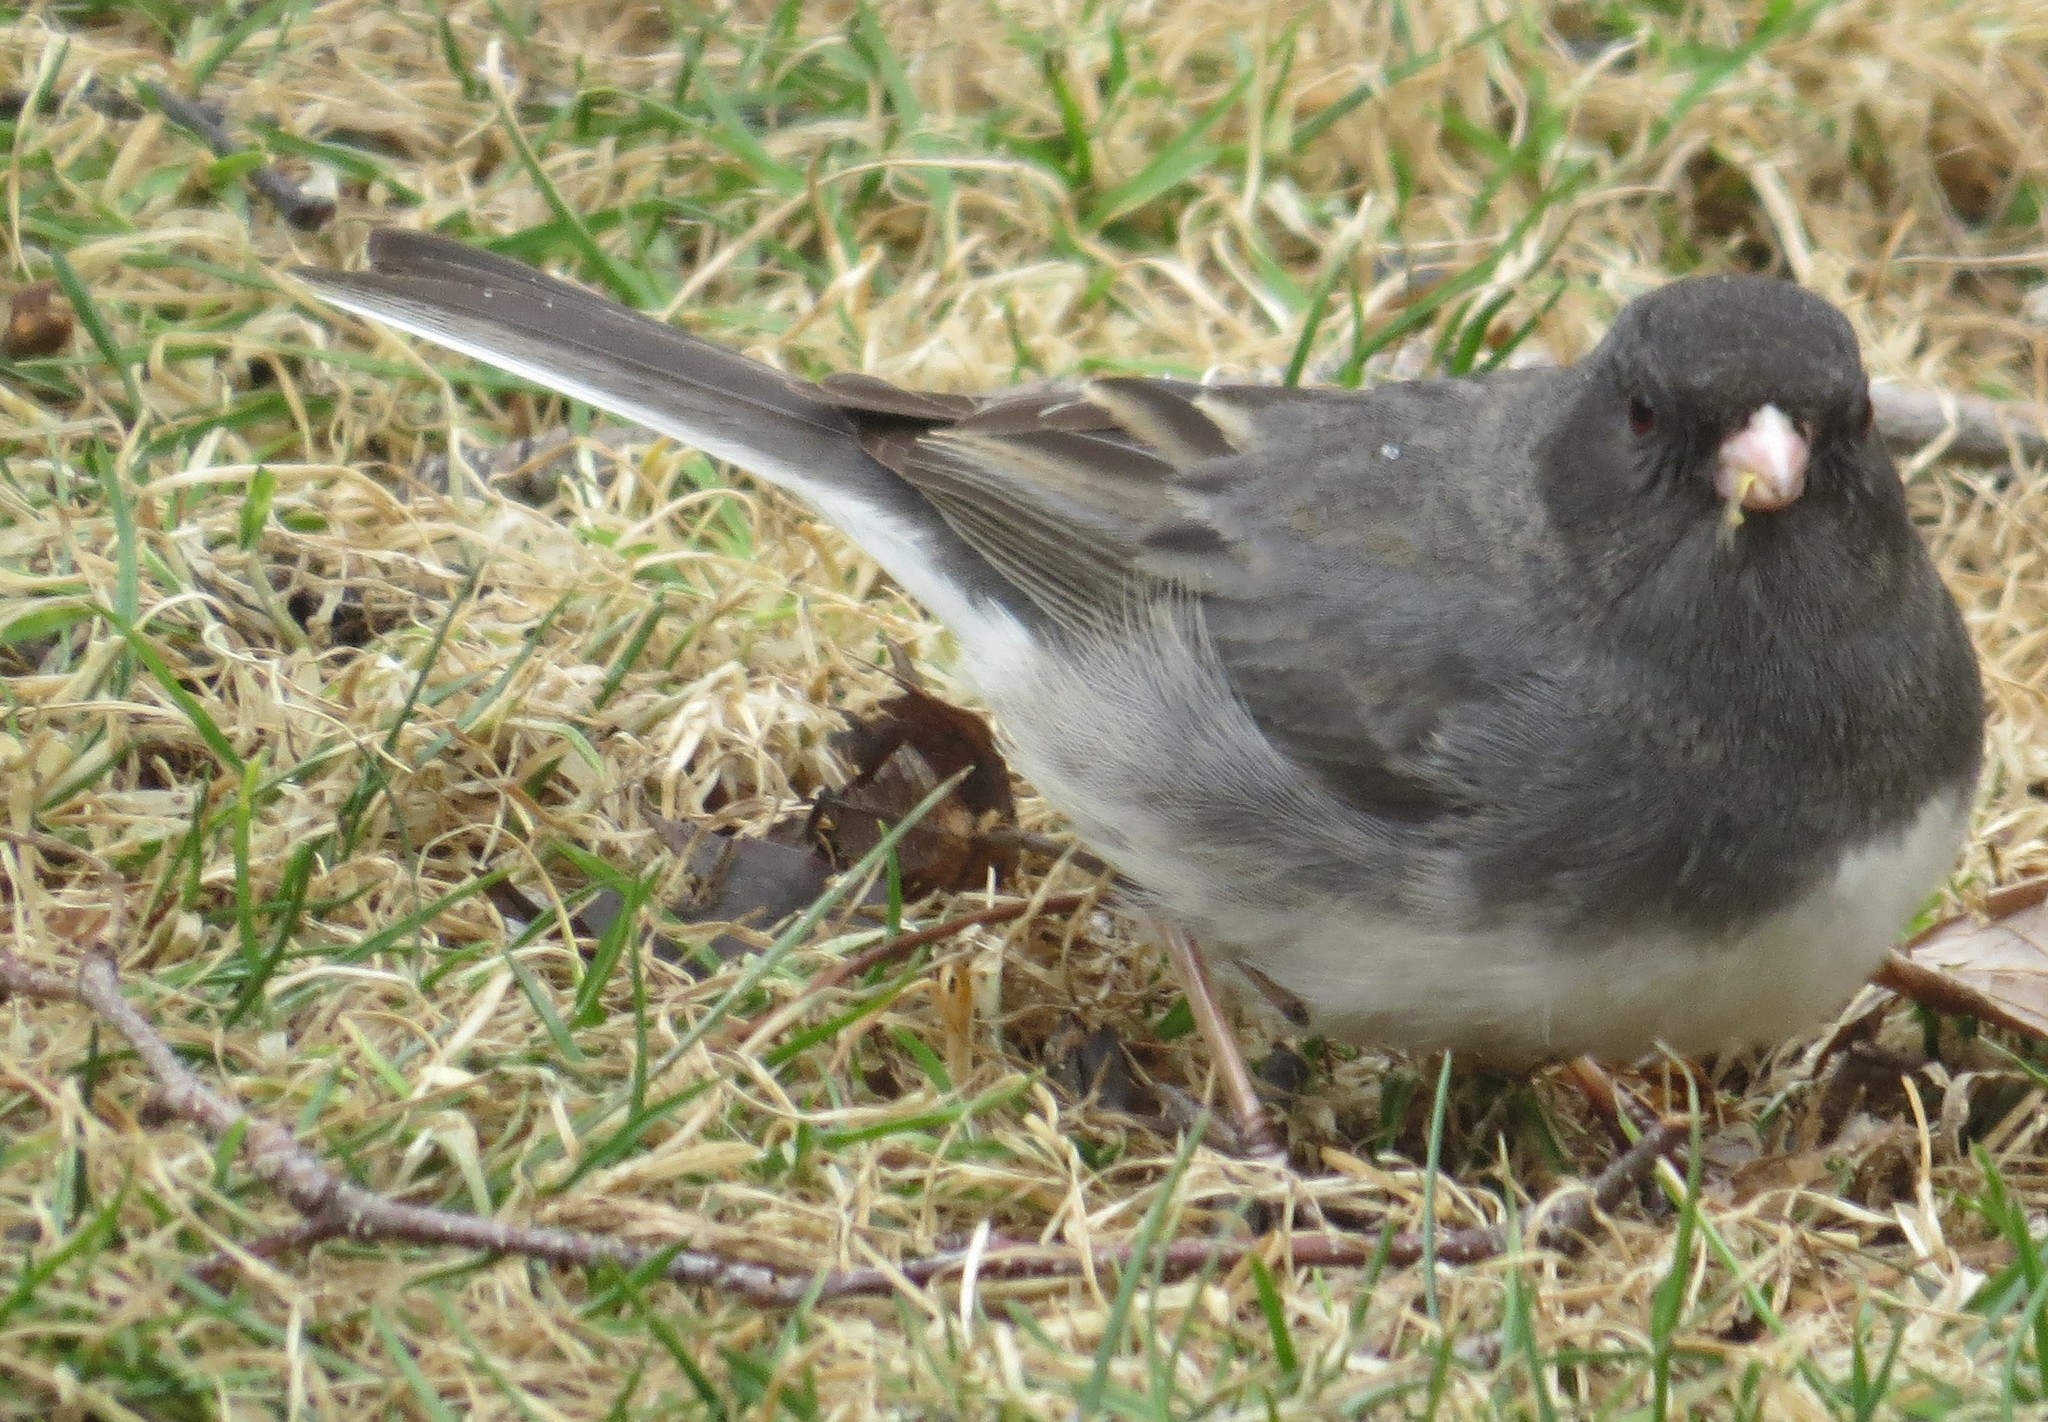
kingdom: Animalia
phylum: Chordata
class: Aves
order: Passeriformes
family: Passerellidae
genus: Junco
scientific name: Junco hyemalis
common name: Dark-eyed junco
